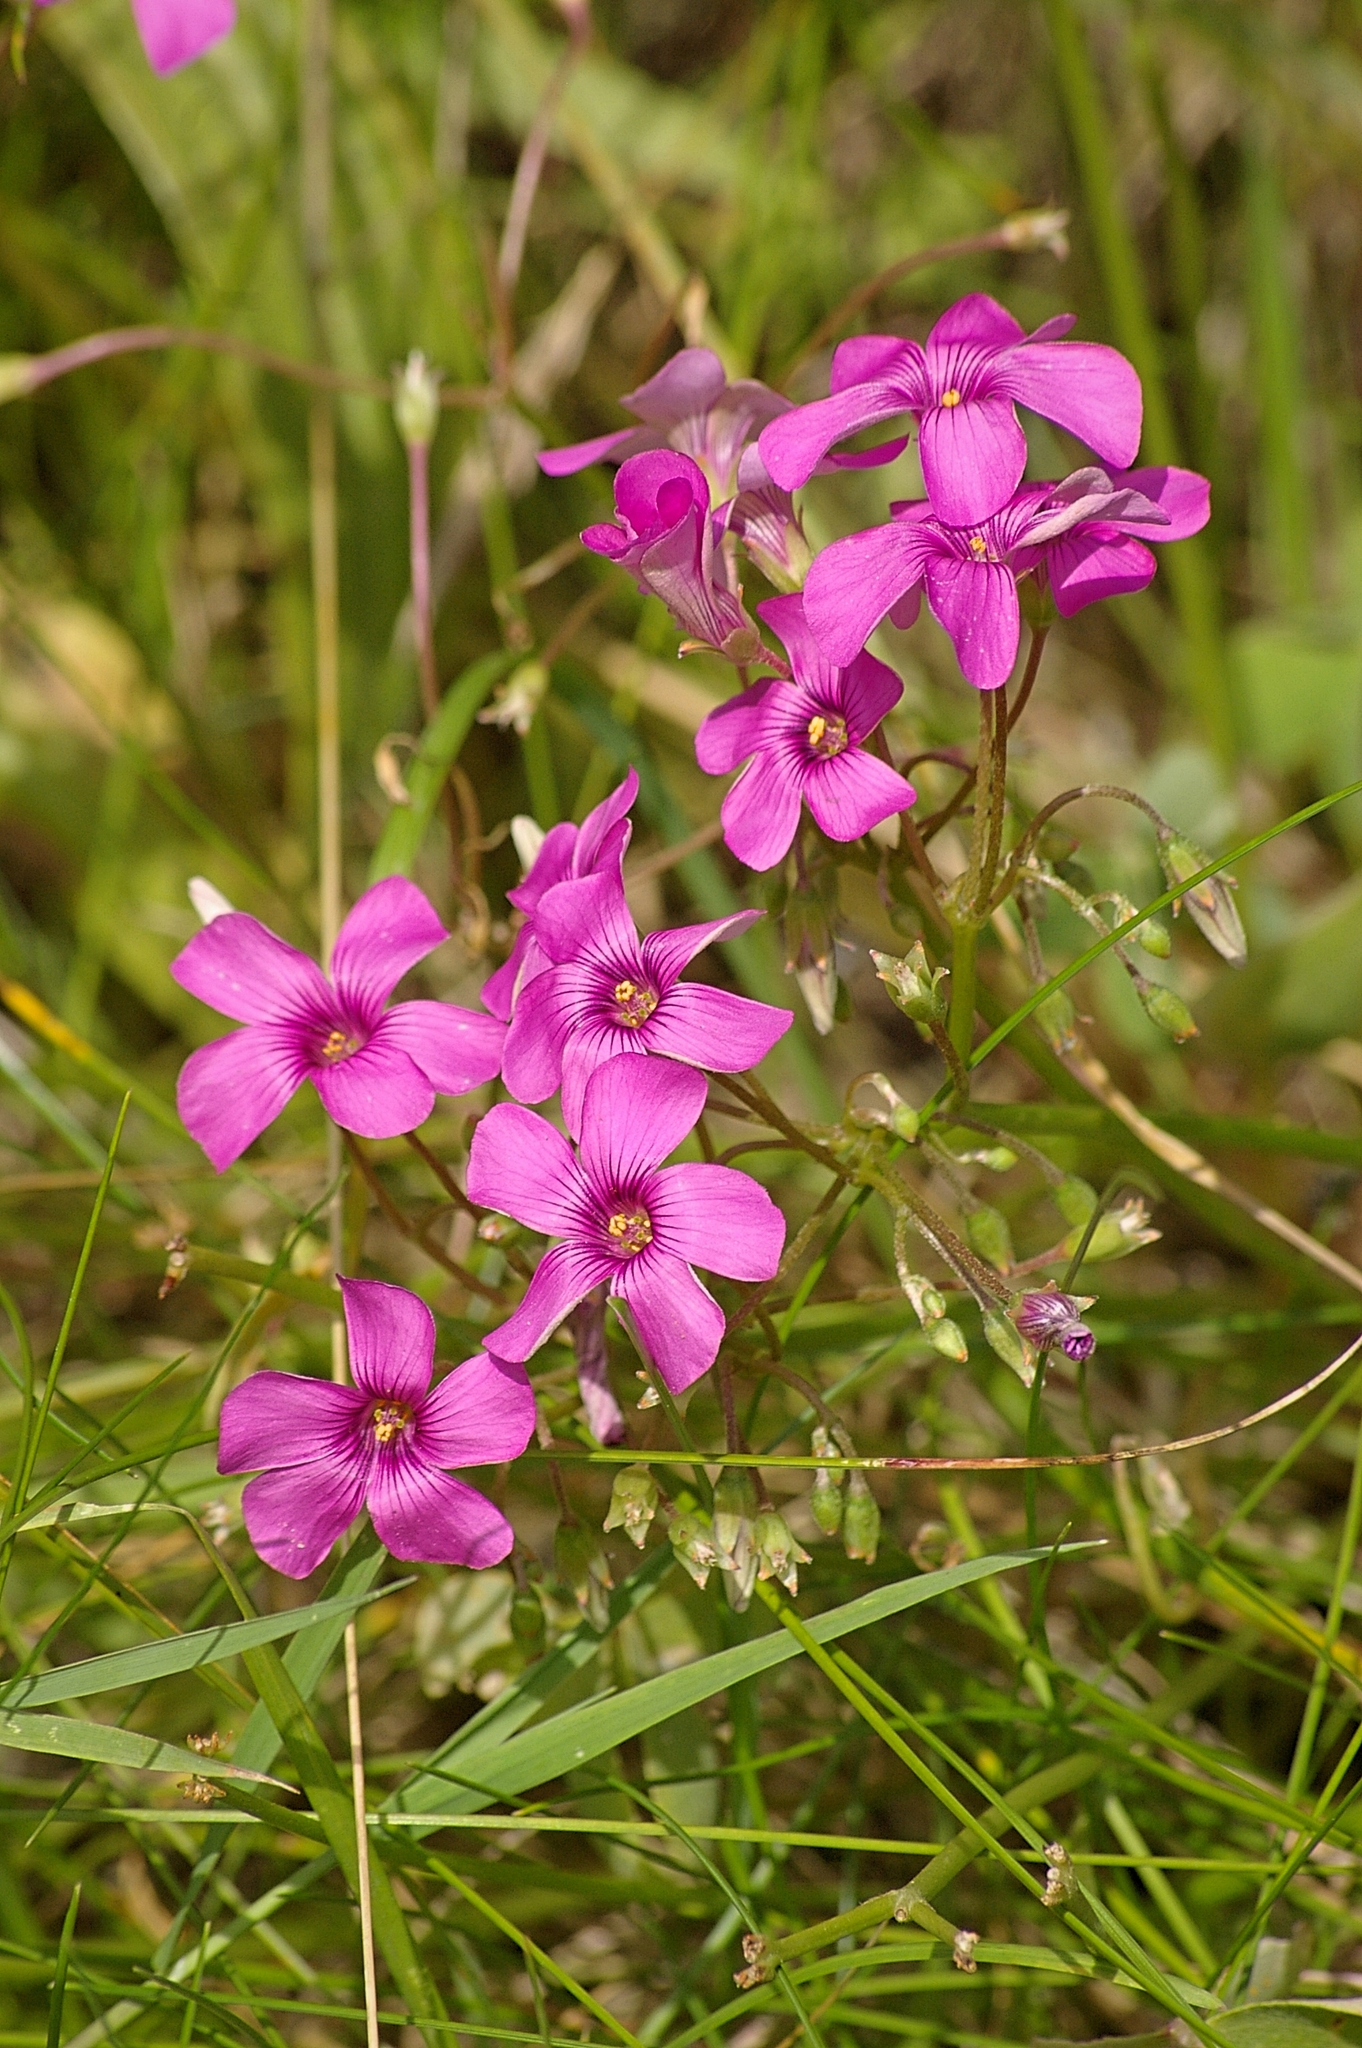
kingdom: Plantae
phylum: Tracheophyta
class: Magnoliopsida
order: Oxalidales
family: Oxalidaceae
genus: Oxalis
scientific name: Oxalis articulata
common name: Pink-sorrel
